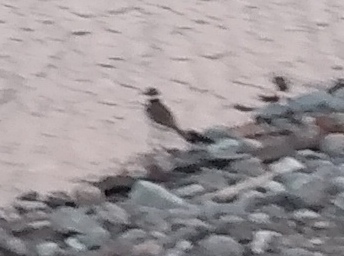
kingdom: Animalia
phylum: Chordata
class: Aves
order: Charadriiformes
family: Charadriidae
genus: Charadrius
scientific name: Charadrius vociferus
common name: Killdeer
